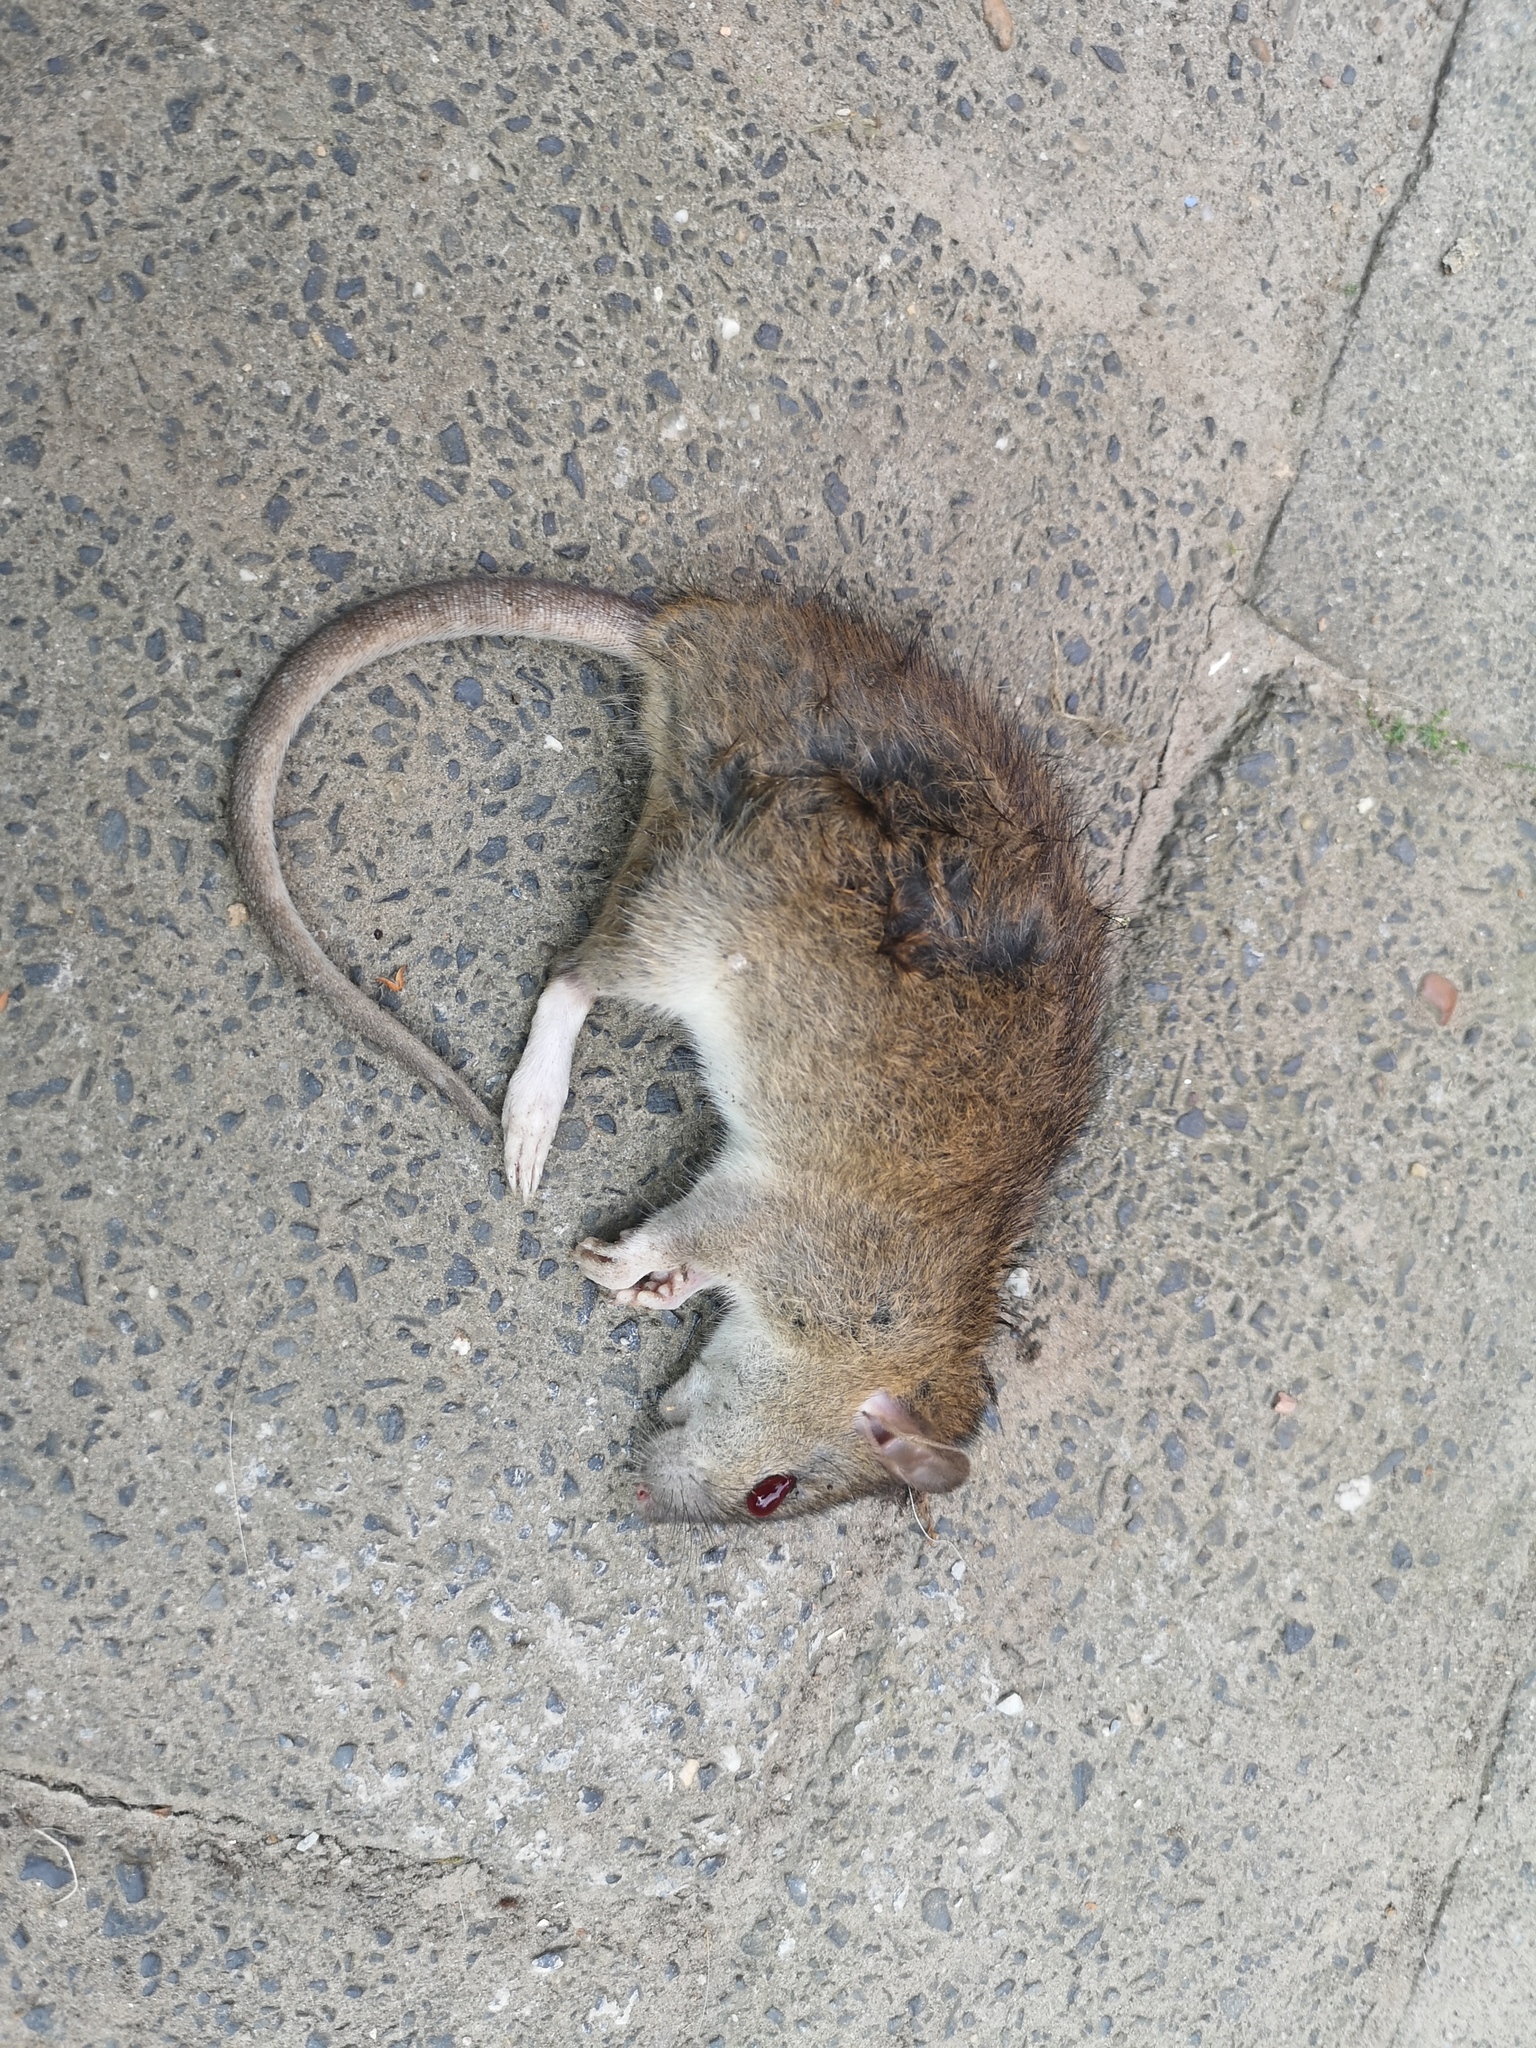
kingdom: Animalia
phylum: Chordata
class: Mammalia
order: Rodentia
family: Muridae
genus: Rattus
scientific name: Rattus norvegicus
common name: Brown rat
